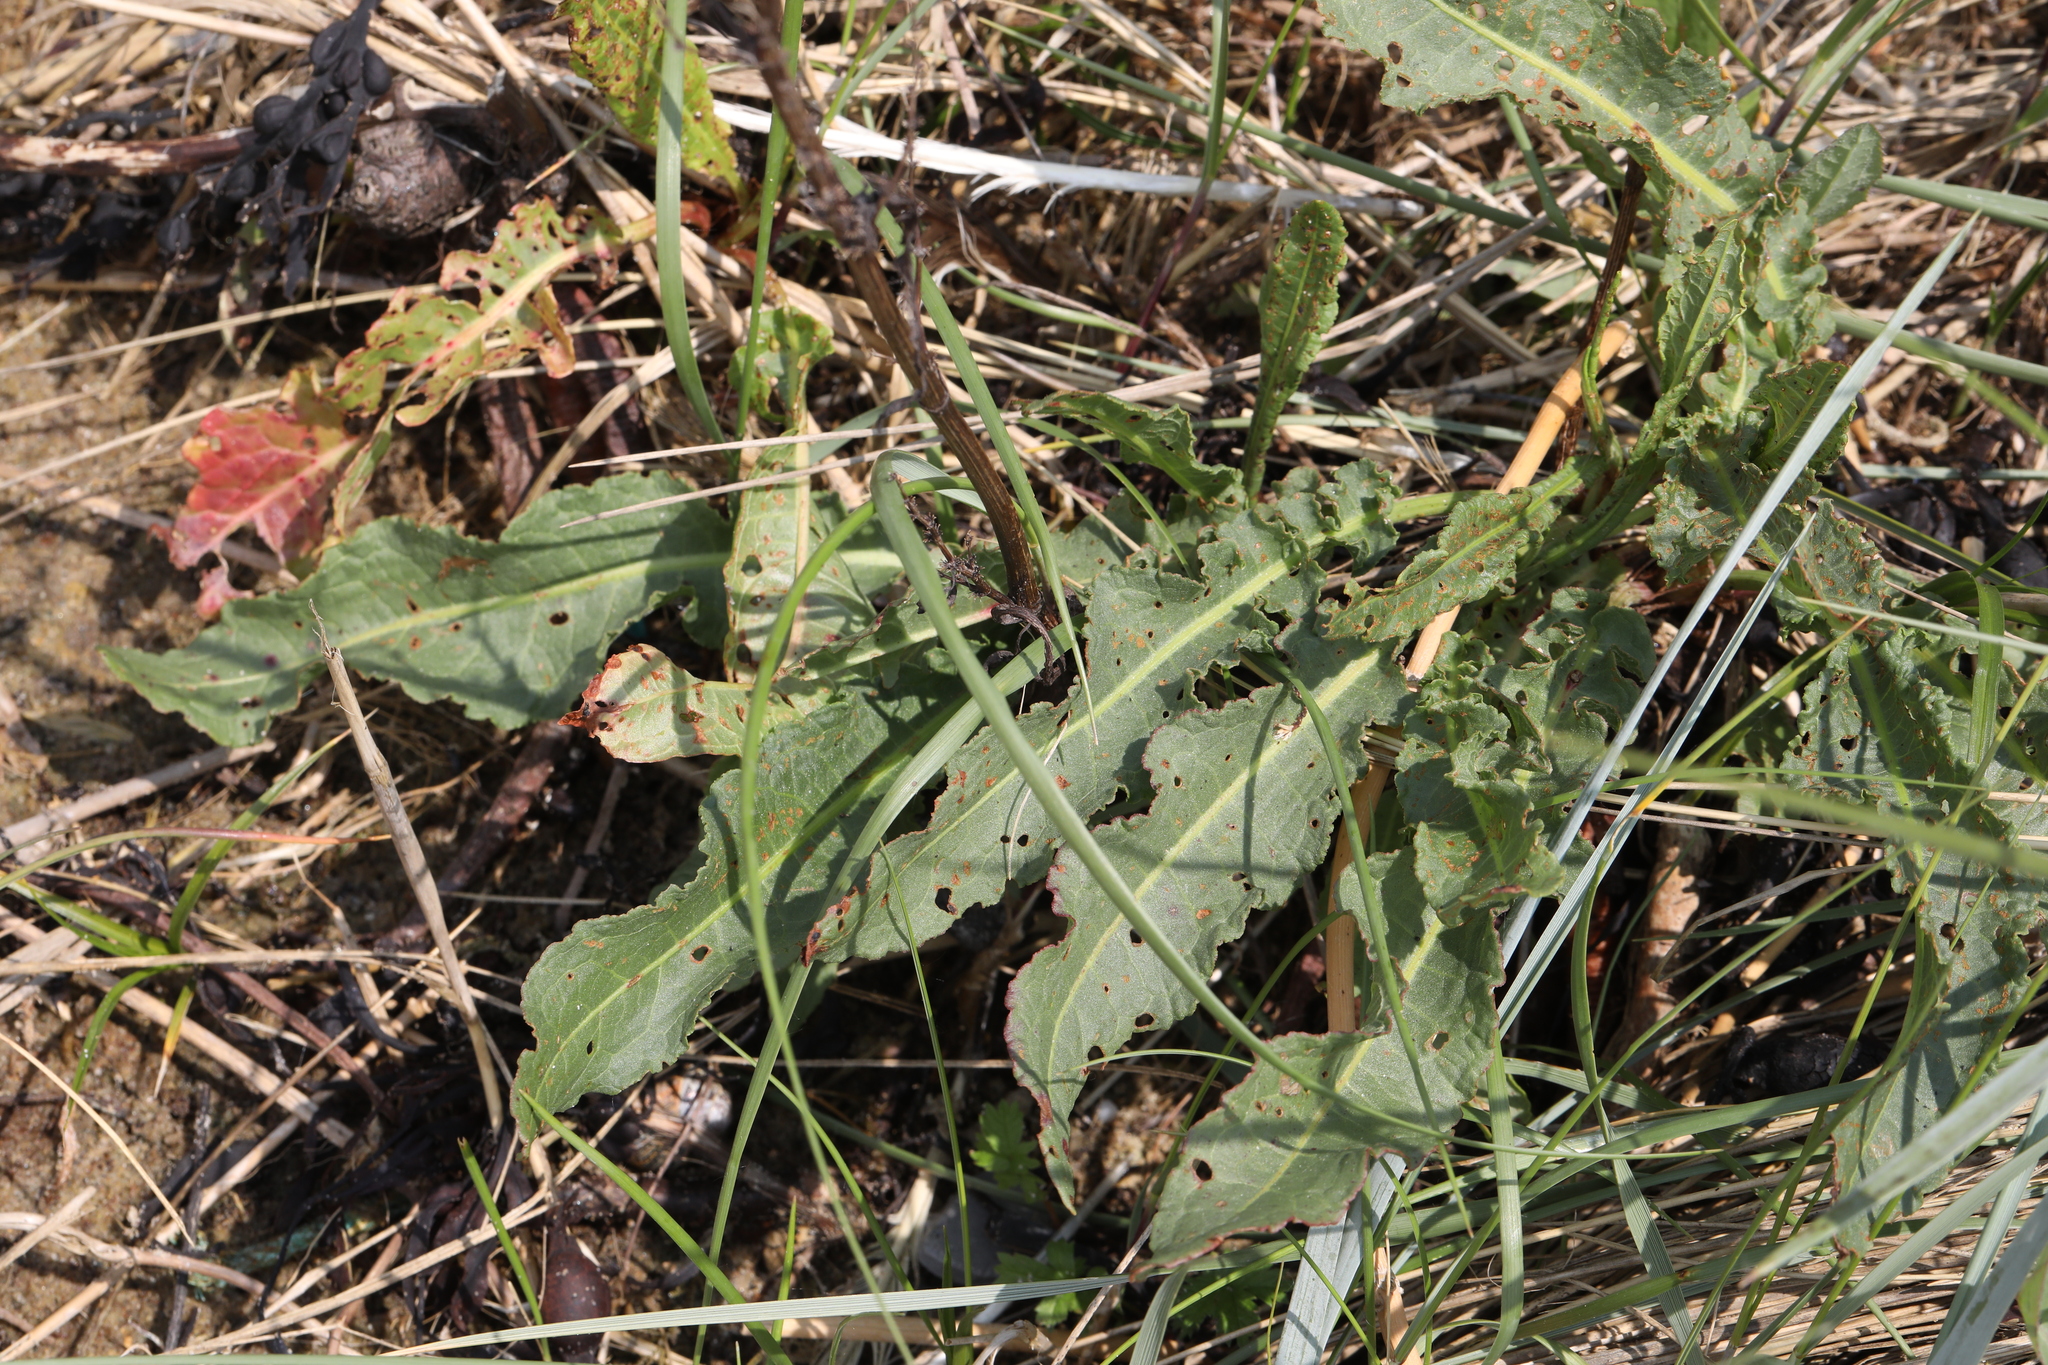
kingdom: Plantae
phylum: Tracheophyta
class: Magnoliopsida
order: Caryophyllales
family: Polygonaceae
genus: Rumex
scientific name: Rumex crispus
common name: Curled dock
